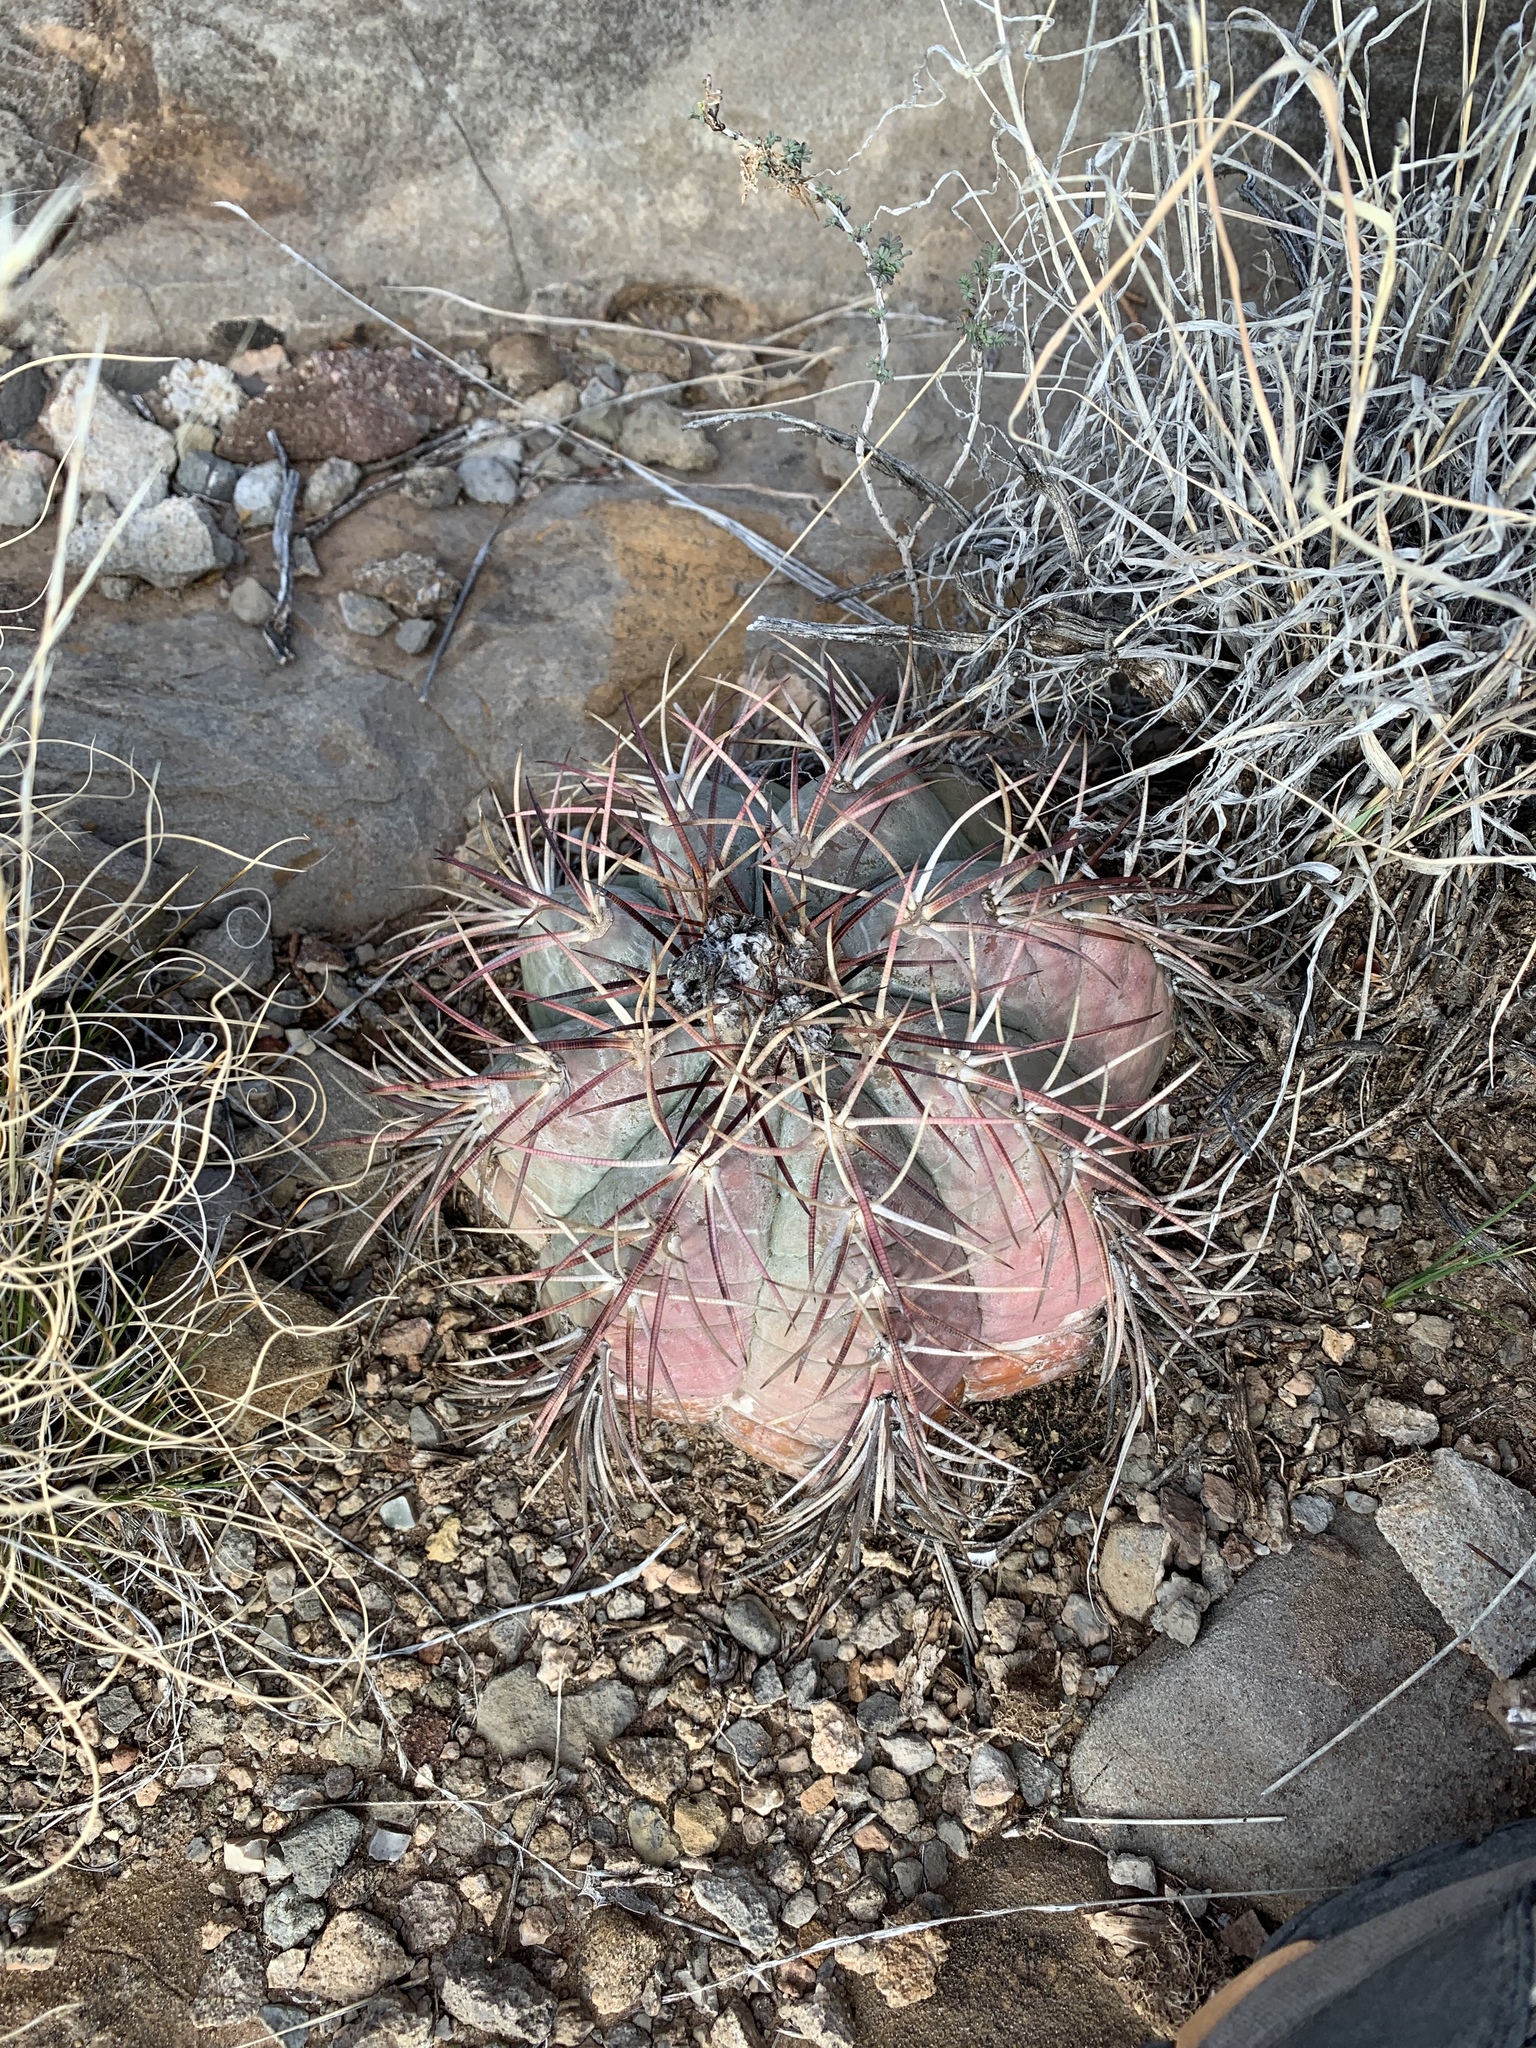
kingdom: Plantae
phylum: Tracheophyta
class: Magnoliopsida
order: Caryophyllales
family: Cactaceae
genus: Echinocactus
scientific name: Echinocactus horizonthalonius
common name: Devilshead
